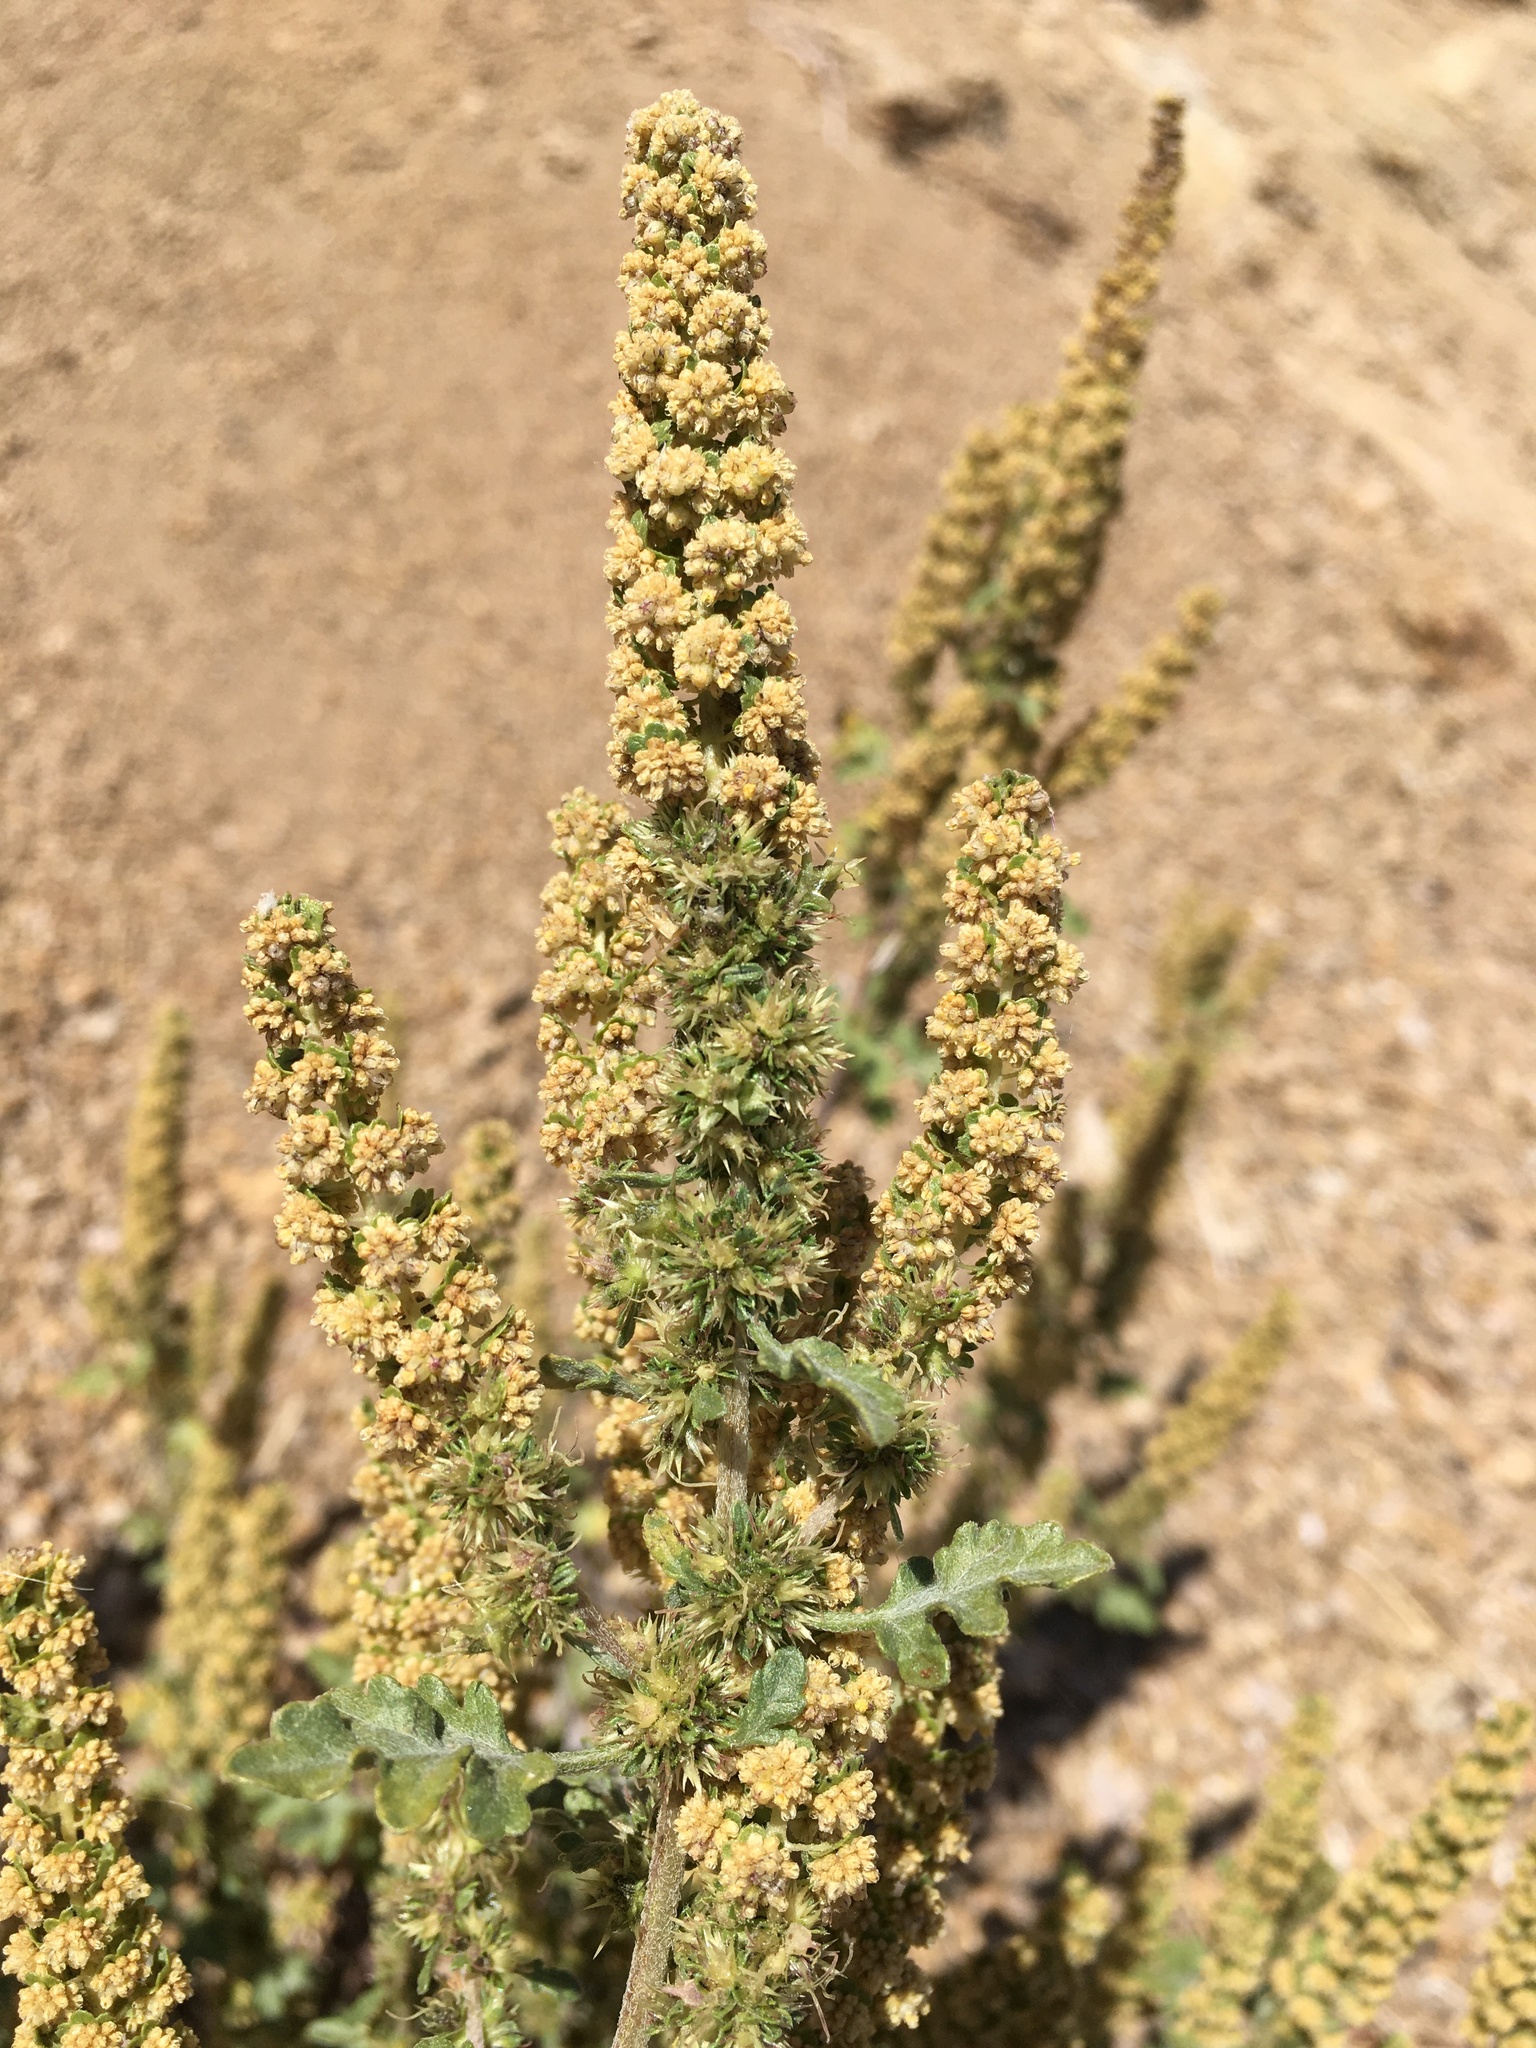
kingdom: Plantae
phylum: Tracheophyta
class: Magnoliopsida
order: Asterales
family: Asteraceae
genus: Ambrosia
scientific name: Ambrosia acanthicarpa
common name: Hooker's bur ragweed
